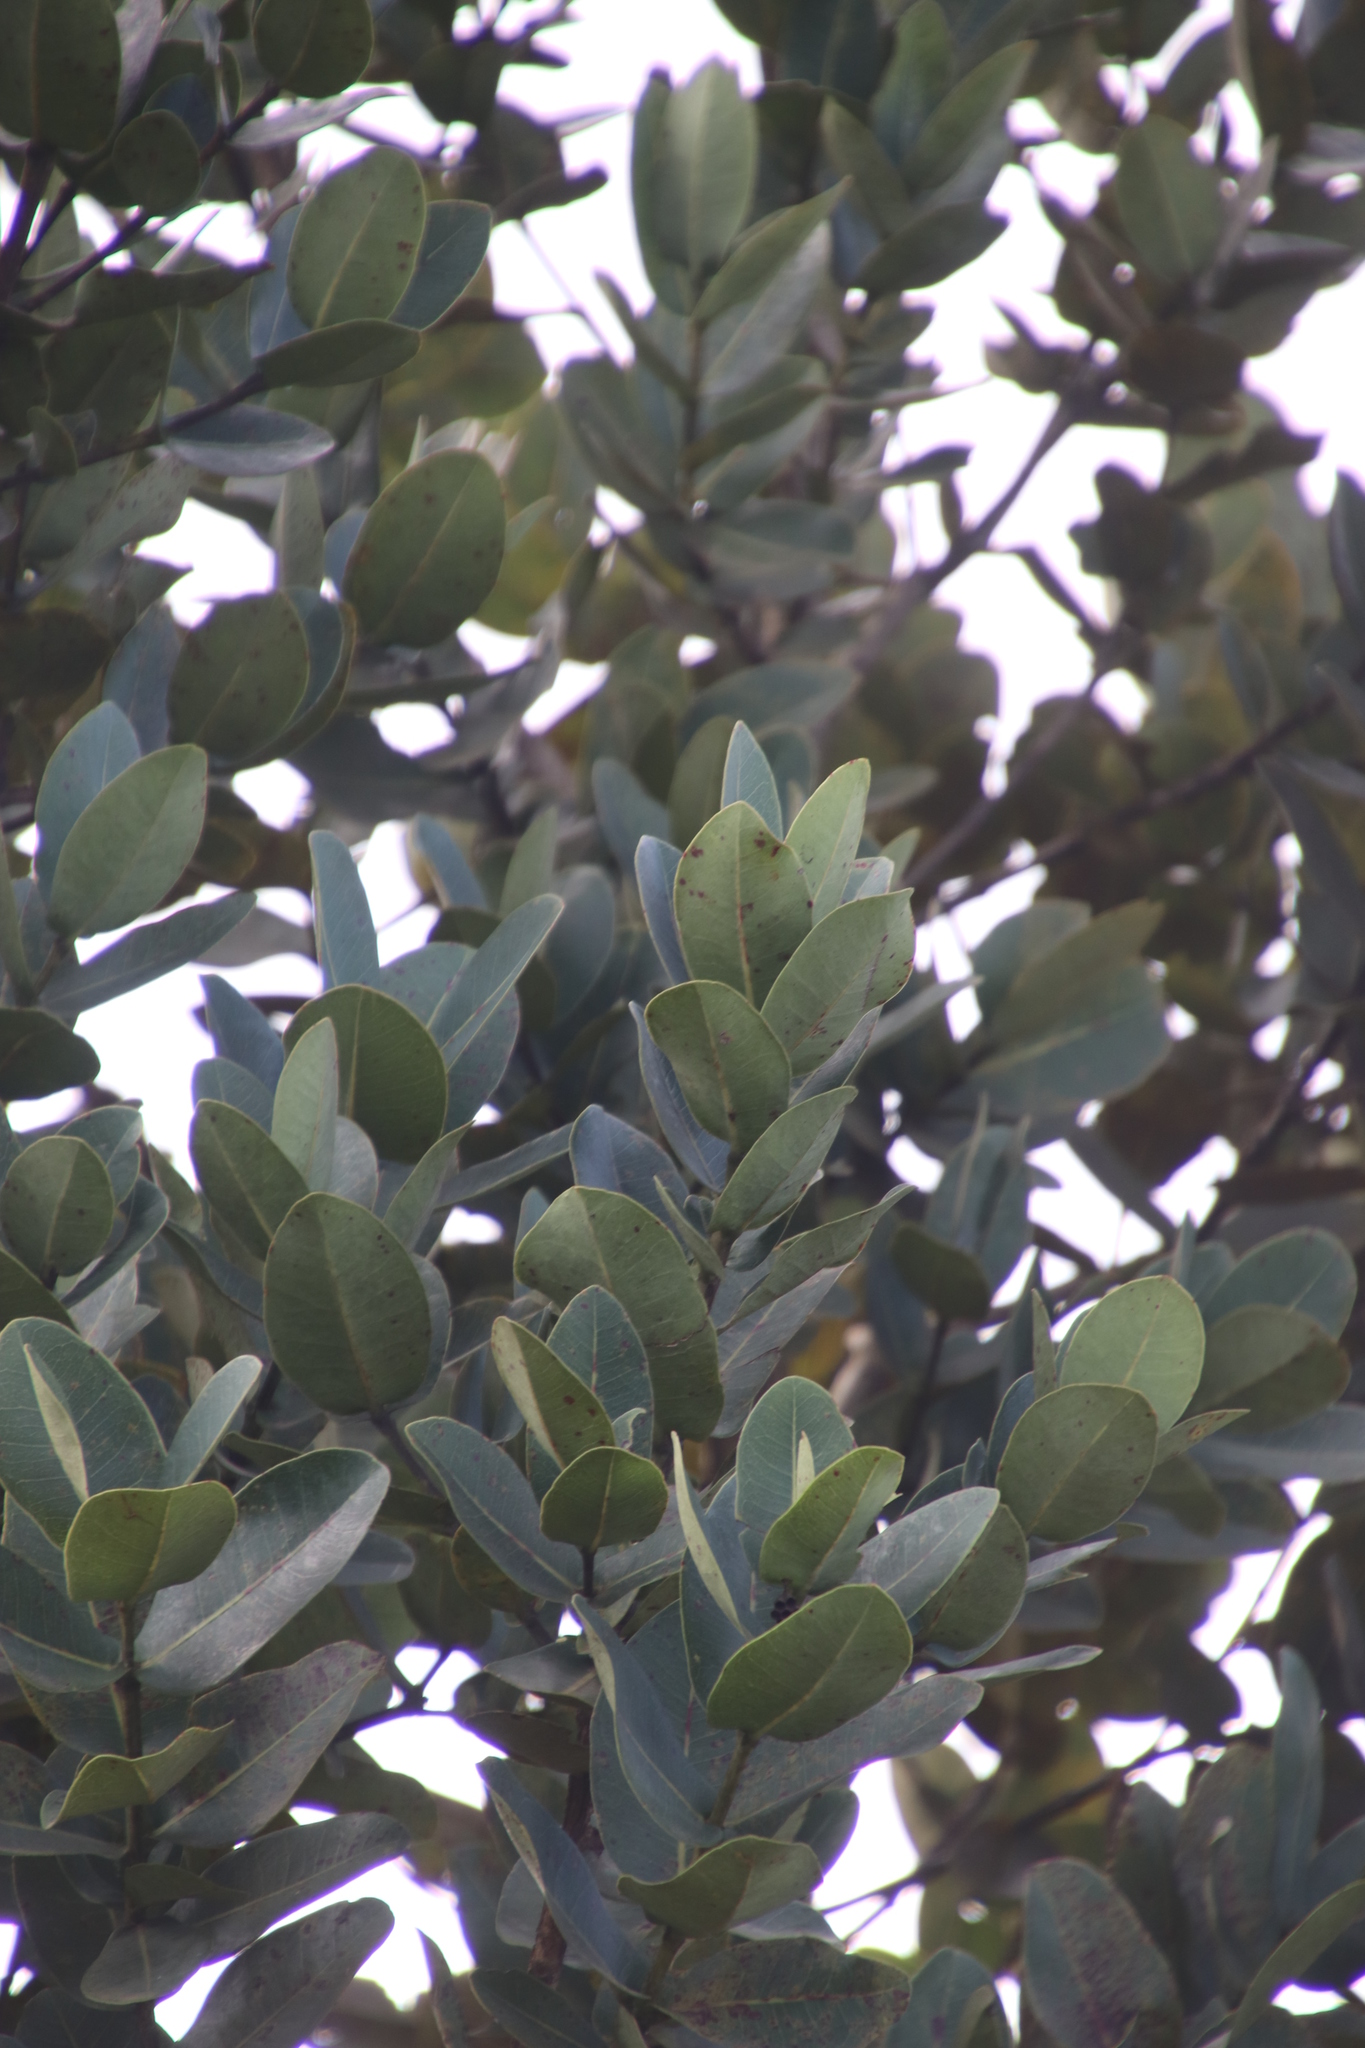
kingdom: Plantae
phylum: Tracheophyta
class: Magnoliopsida
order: Myrtales
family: Myrtaceae
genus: Syzygium
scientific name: Syzygium cordatum
